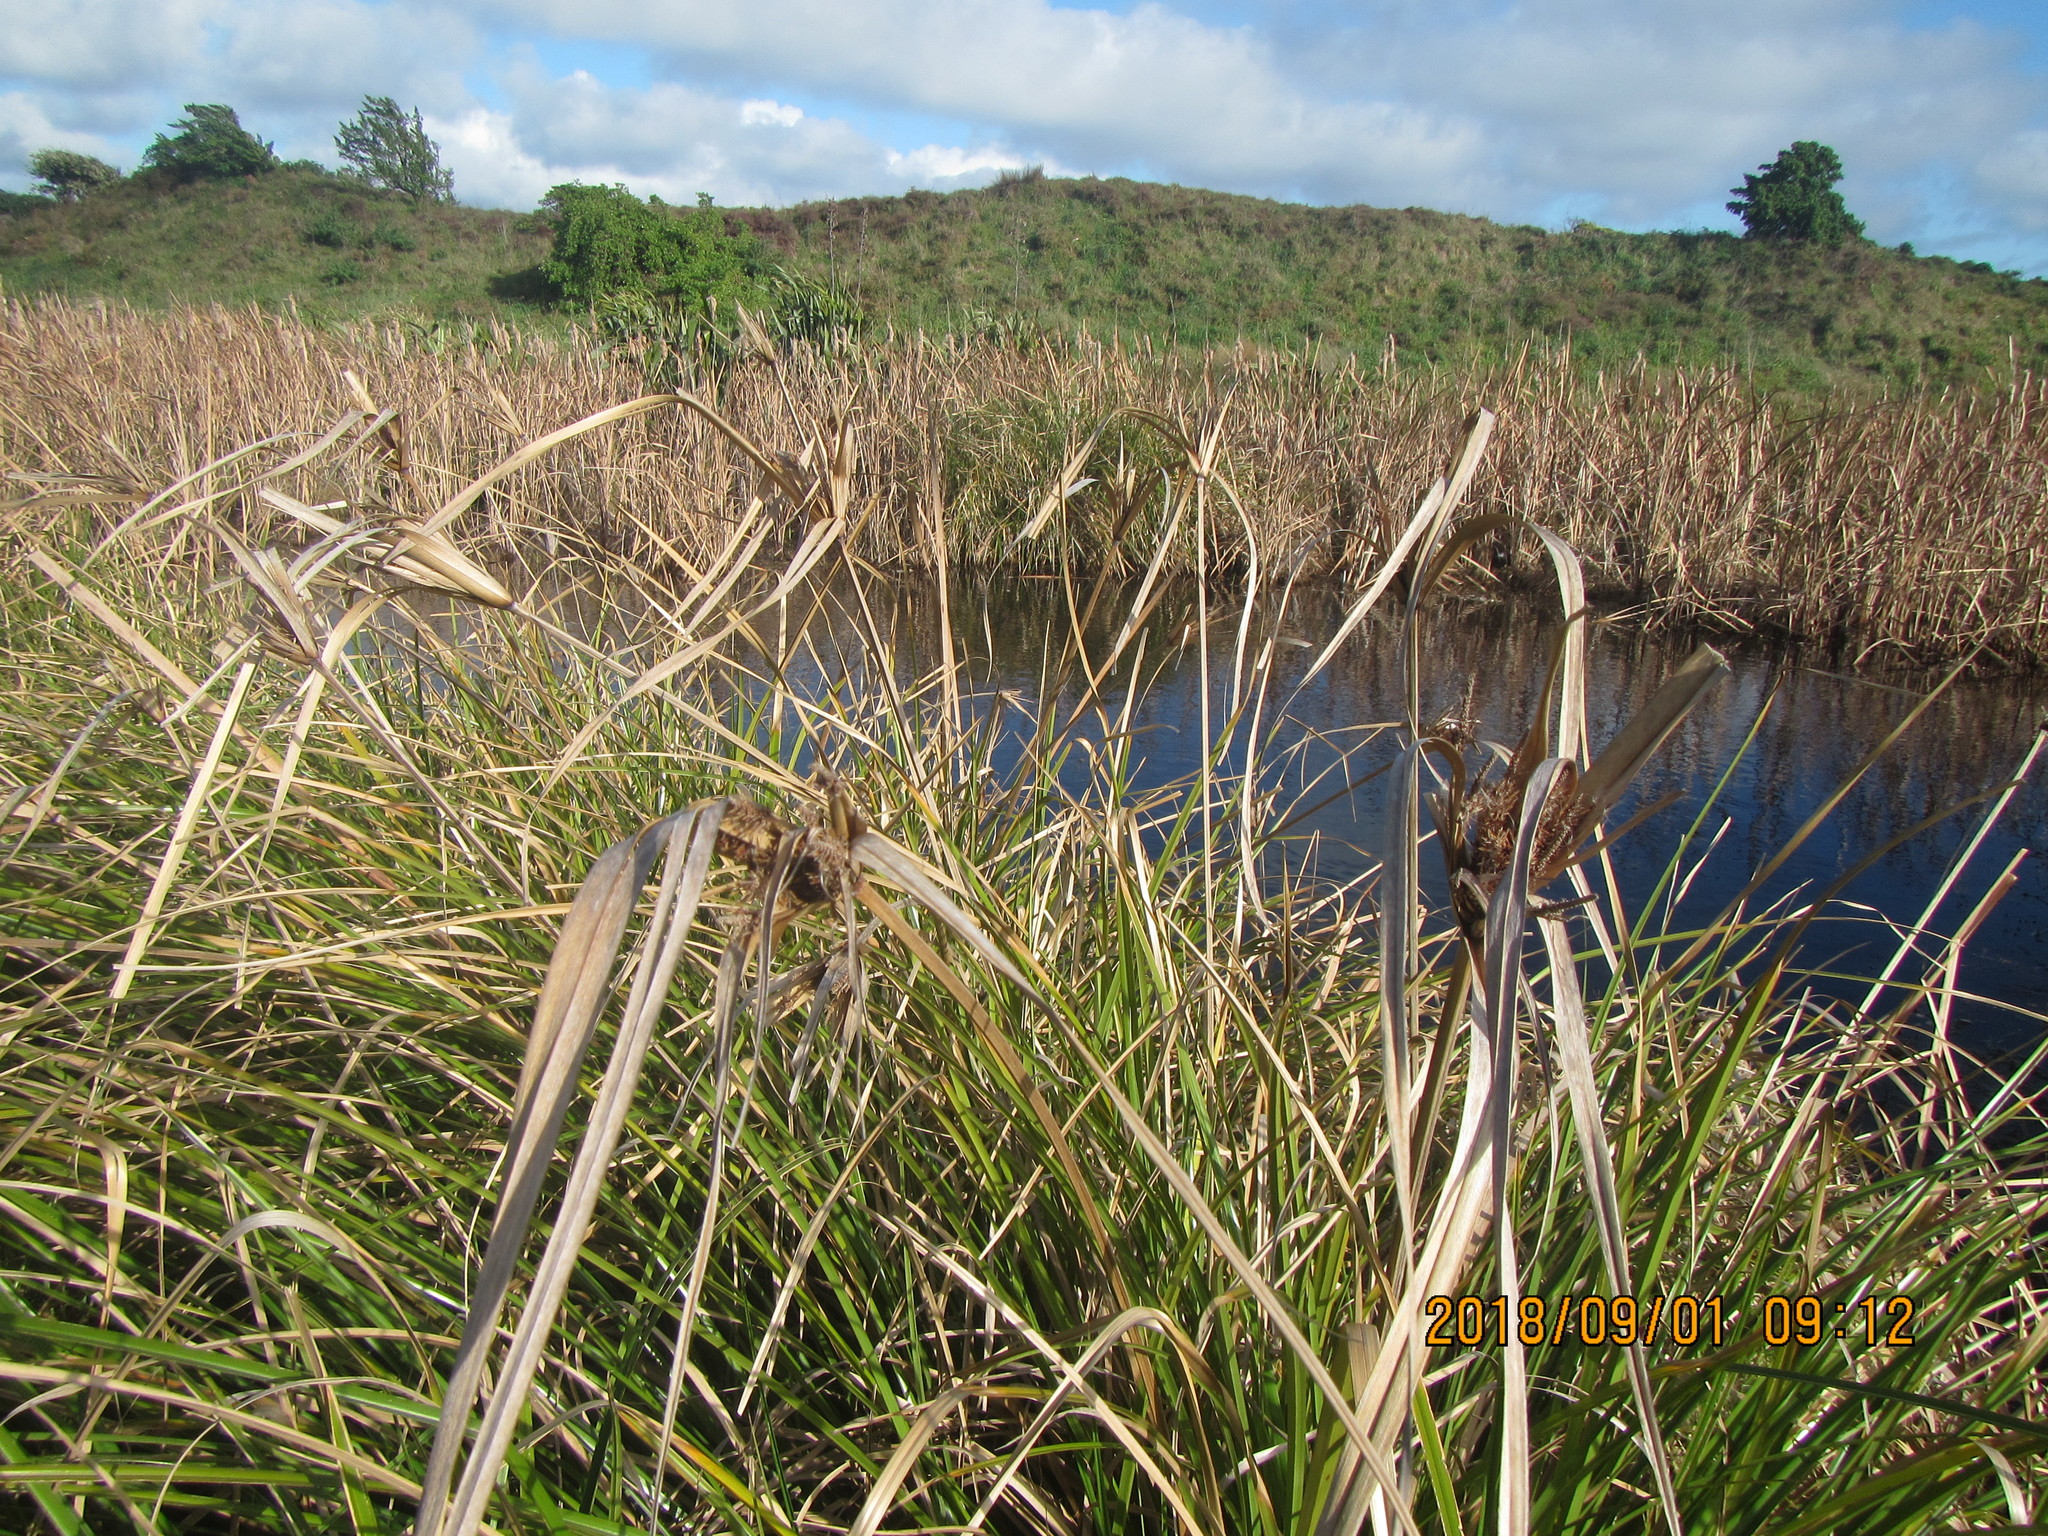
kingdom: Plantae
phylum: Tracheophyta
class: Liliopsida
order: Poales
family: Cyperaceae
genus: Cyperus
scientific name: Cyperus ustulatus
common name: Giant umbrella-sedge
